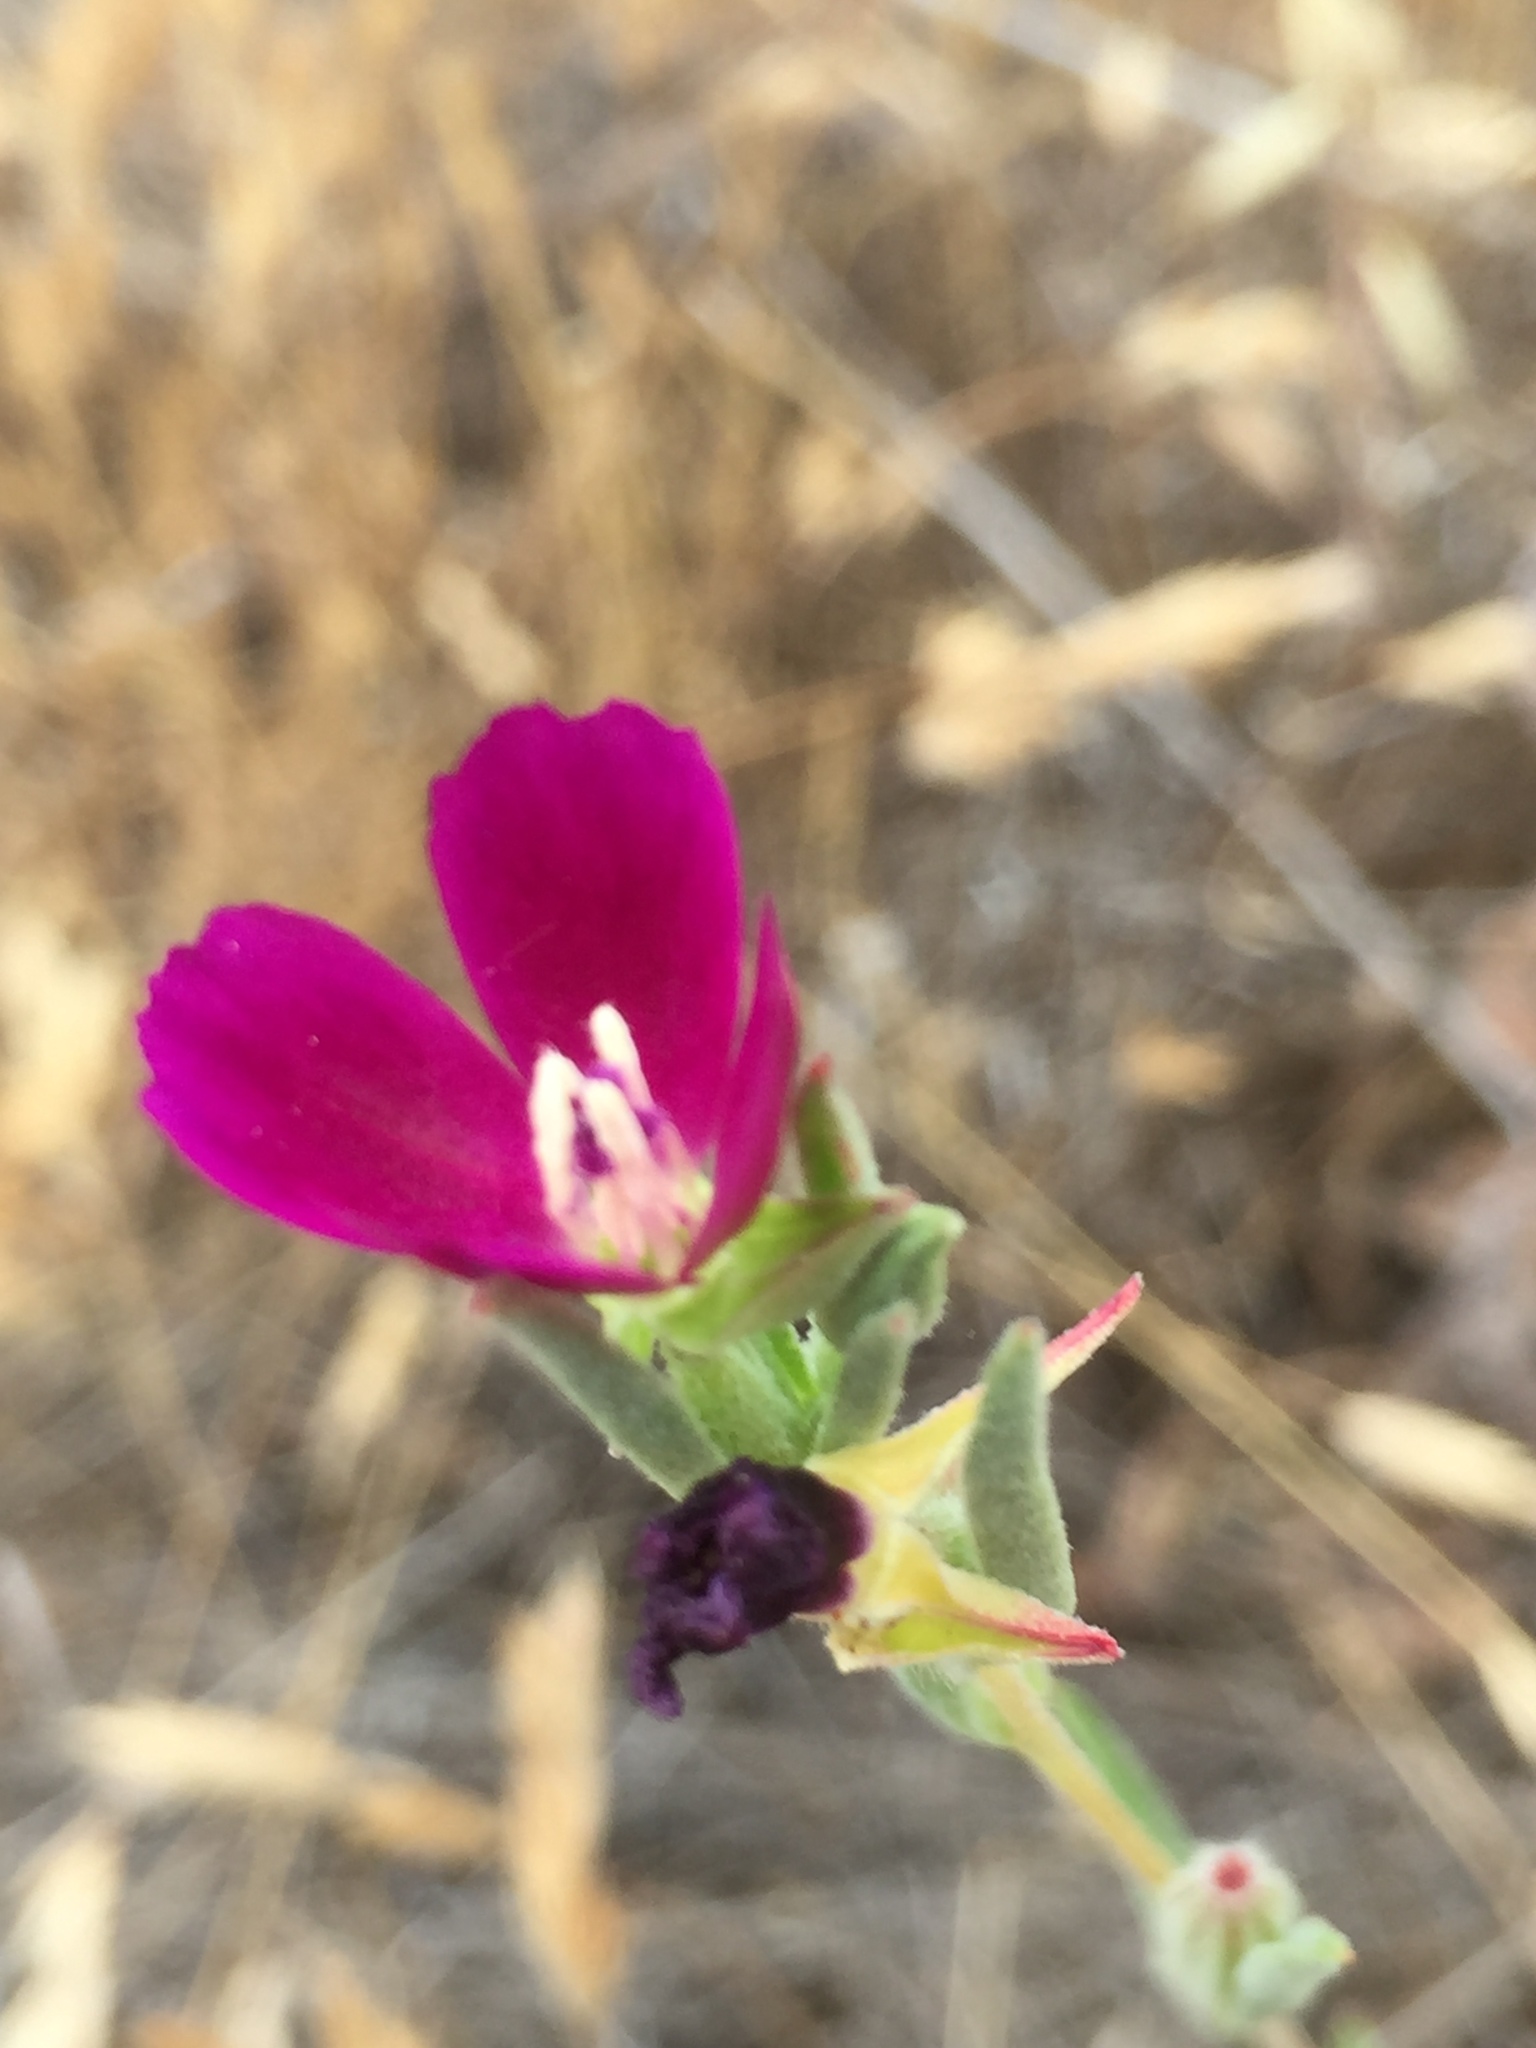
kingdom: Plantae
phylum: Tracheophyta
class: Magnoliopsida
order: Myrtales
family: Onagraceae
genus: Clarkia
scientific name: Clarkia purpurea
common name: Purple clarkia
